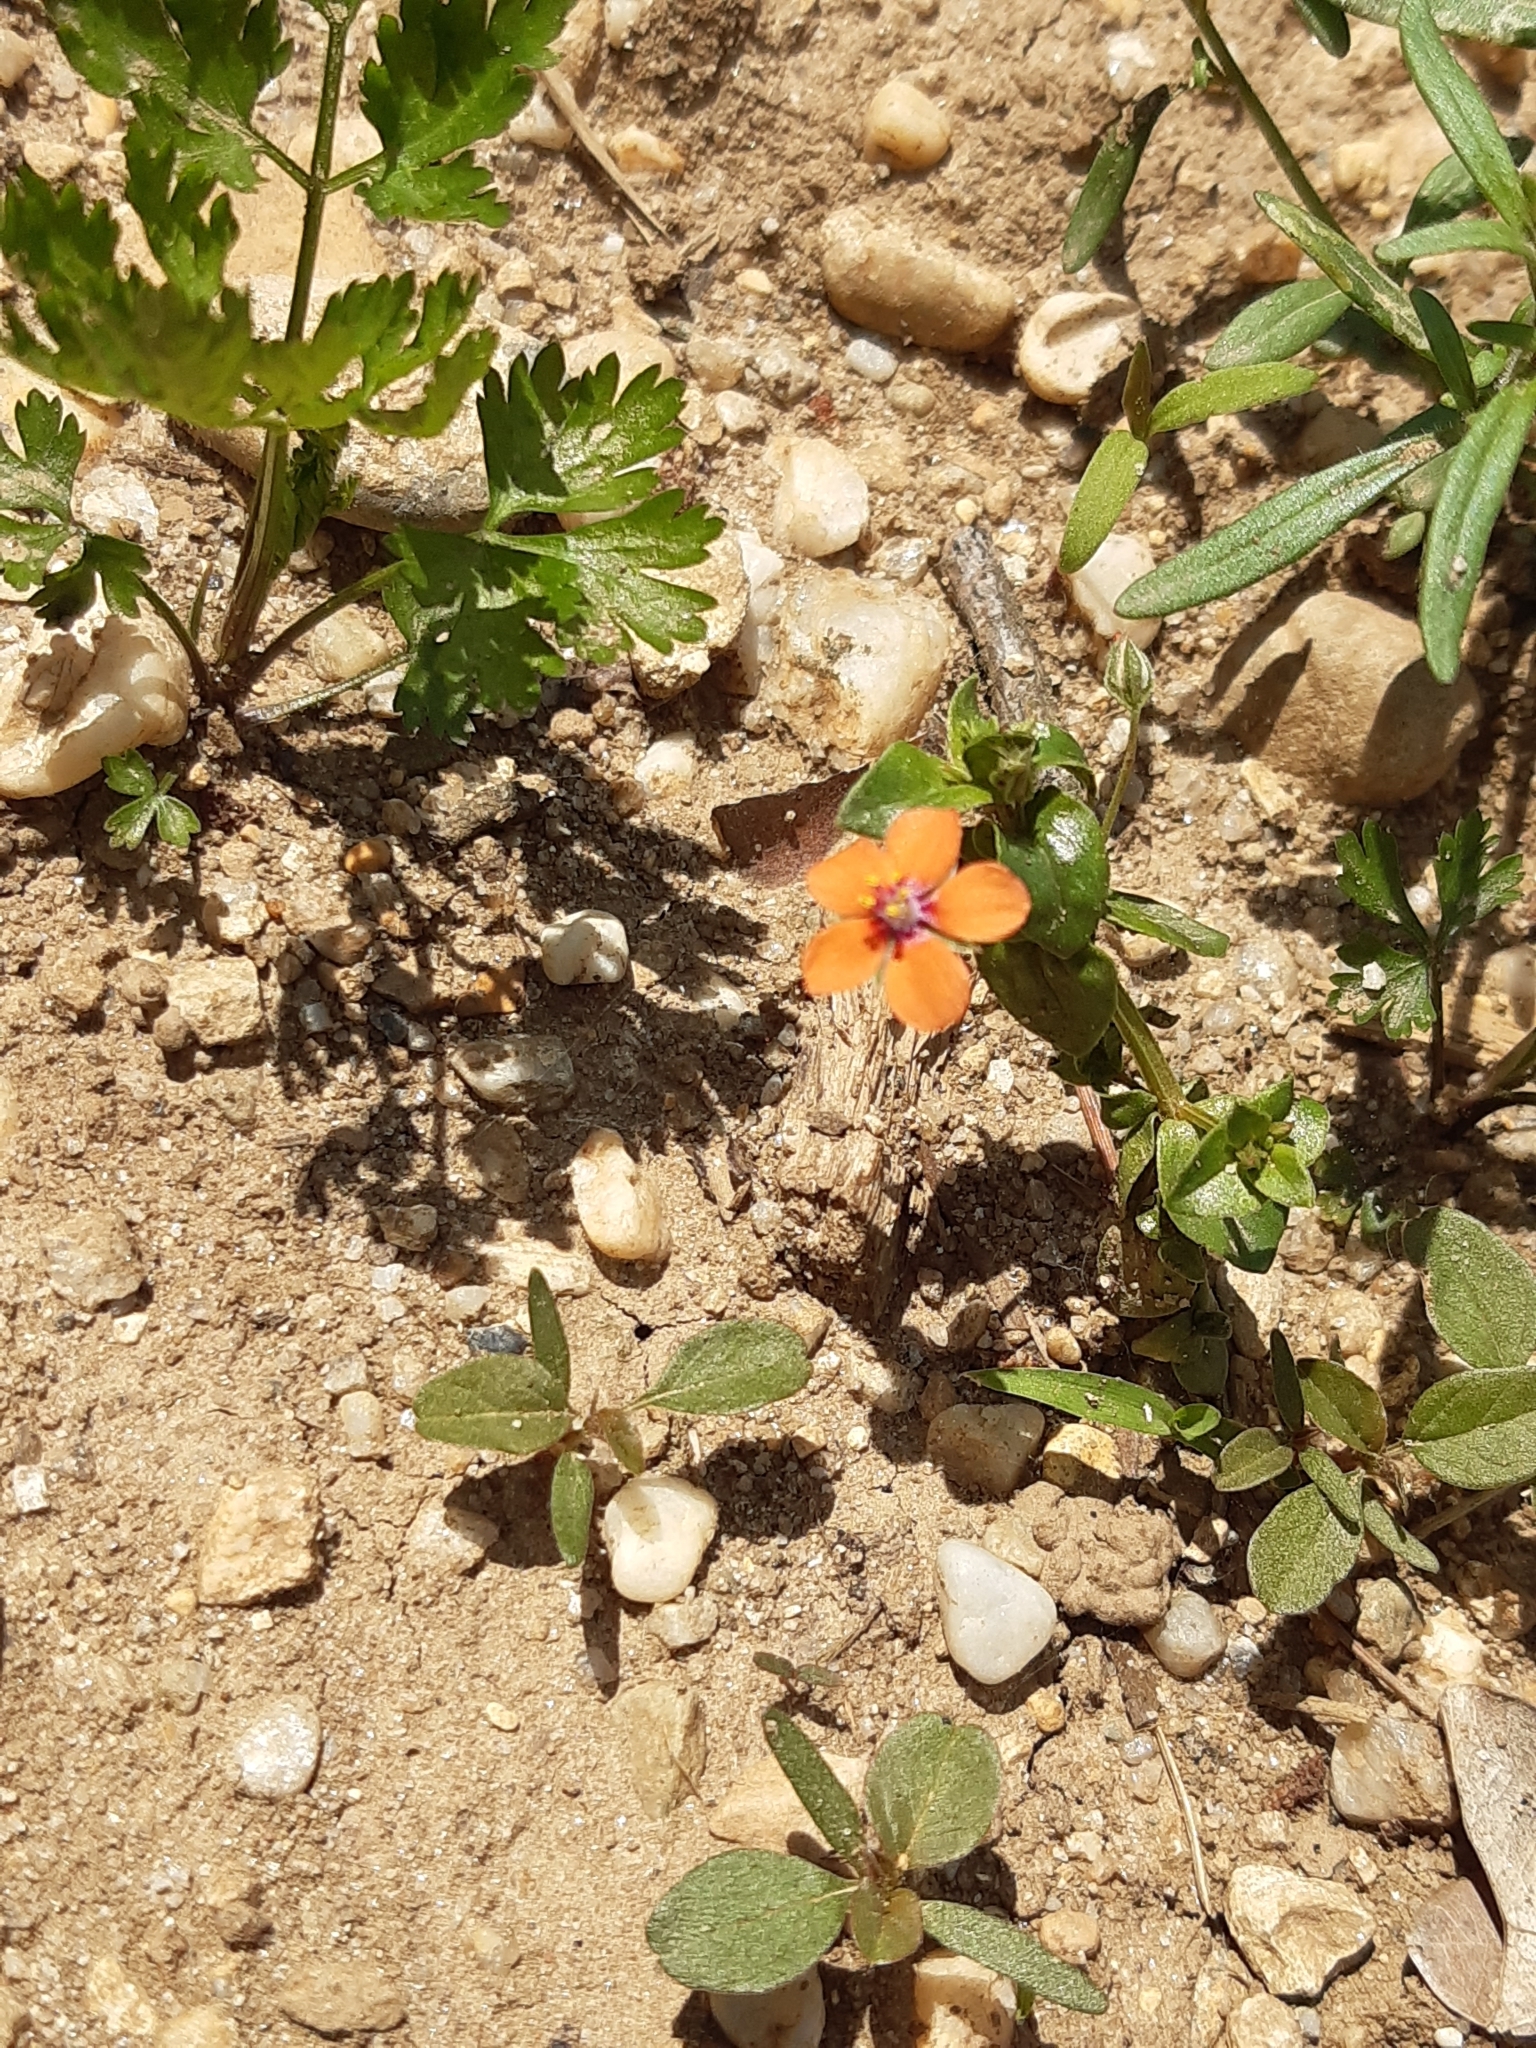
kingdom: Plantae
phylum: Tracheophyta
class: Magnoliopsida
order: Ericales
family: Primulaceae
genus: Lysimachia
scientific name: Lysimachia arvensis
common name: Scarlet pimpernel
